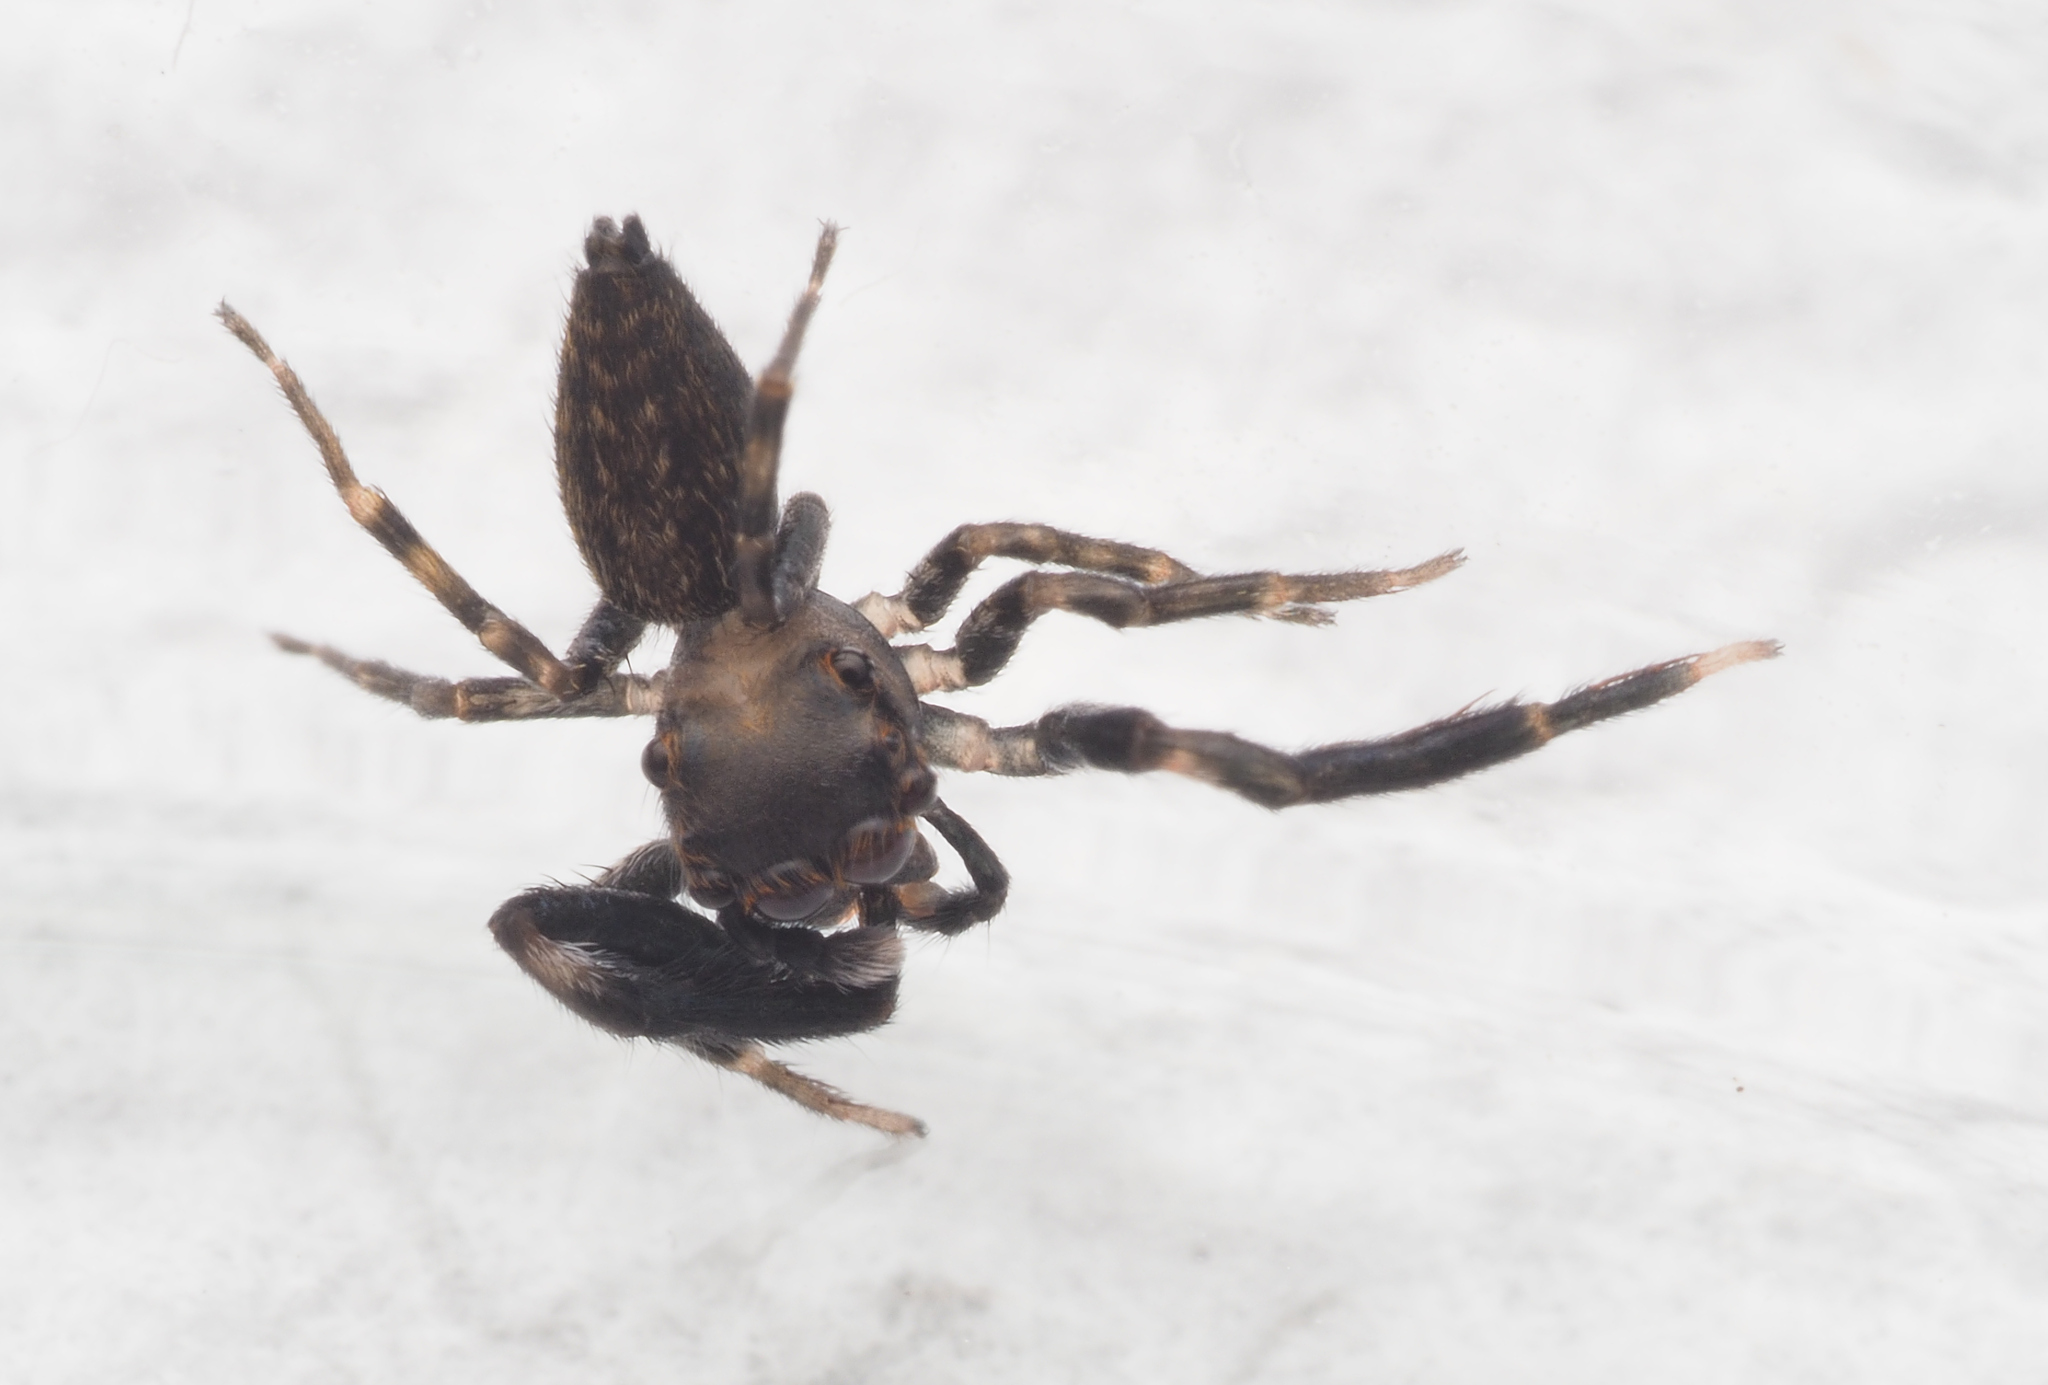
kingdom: Animalia
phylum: Arthropoda
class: Arachnida
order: Araneae
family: Salticidae
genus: Sondra
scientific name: Sondra aurea
